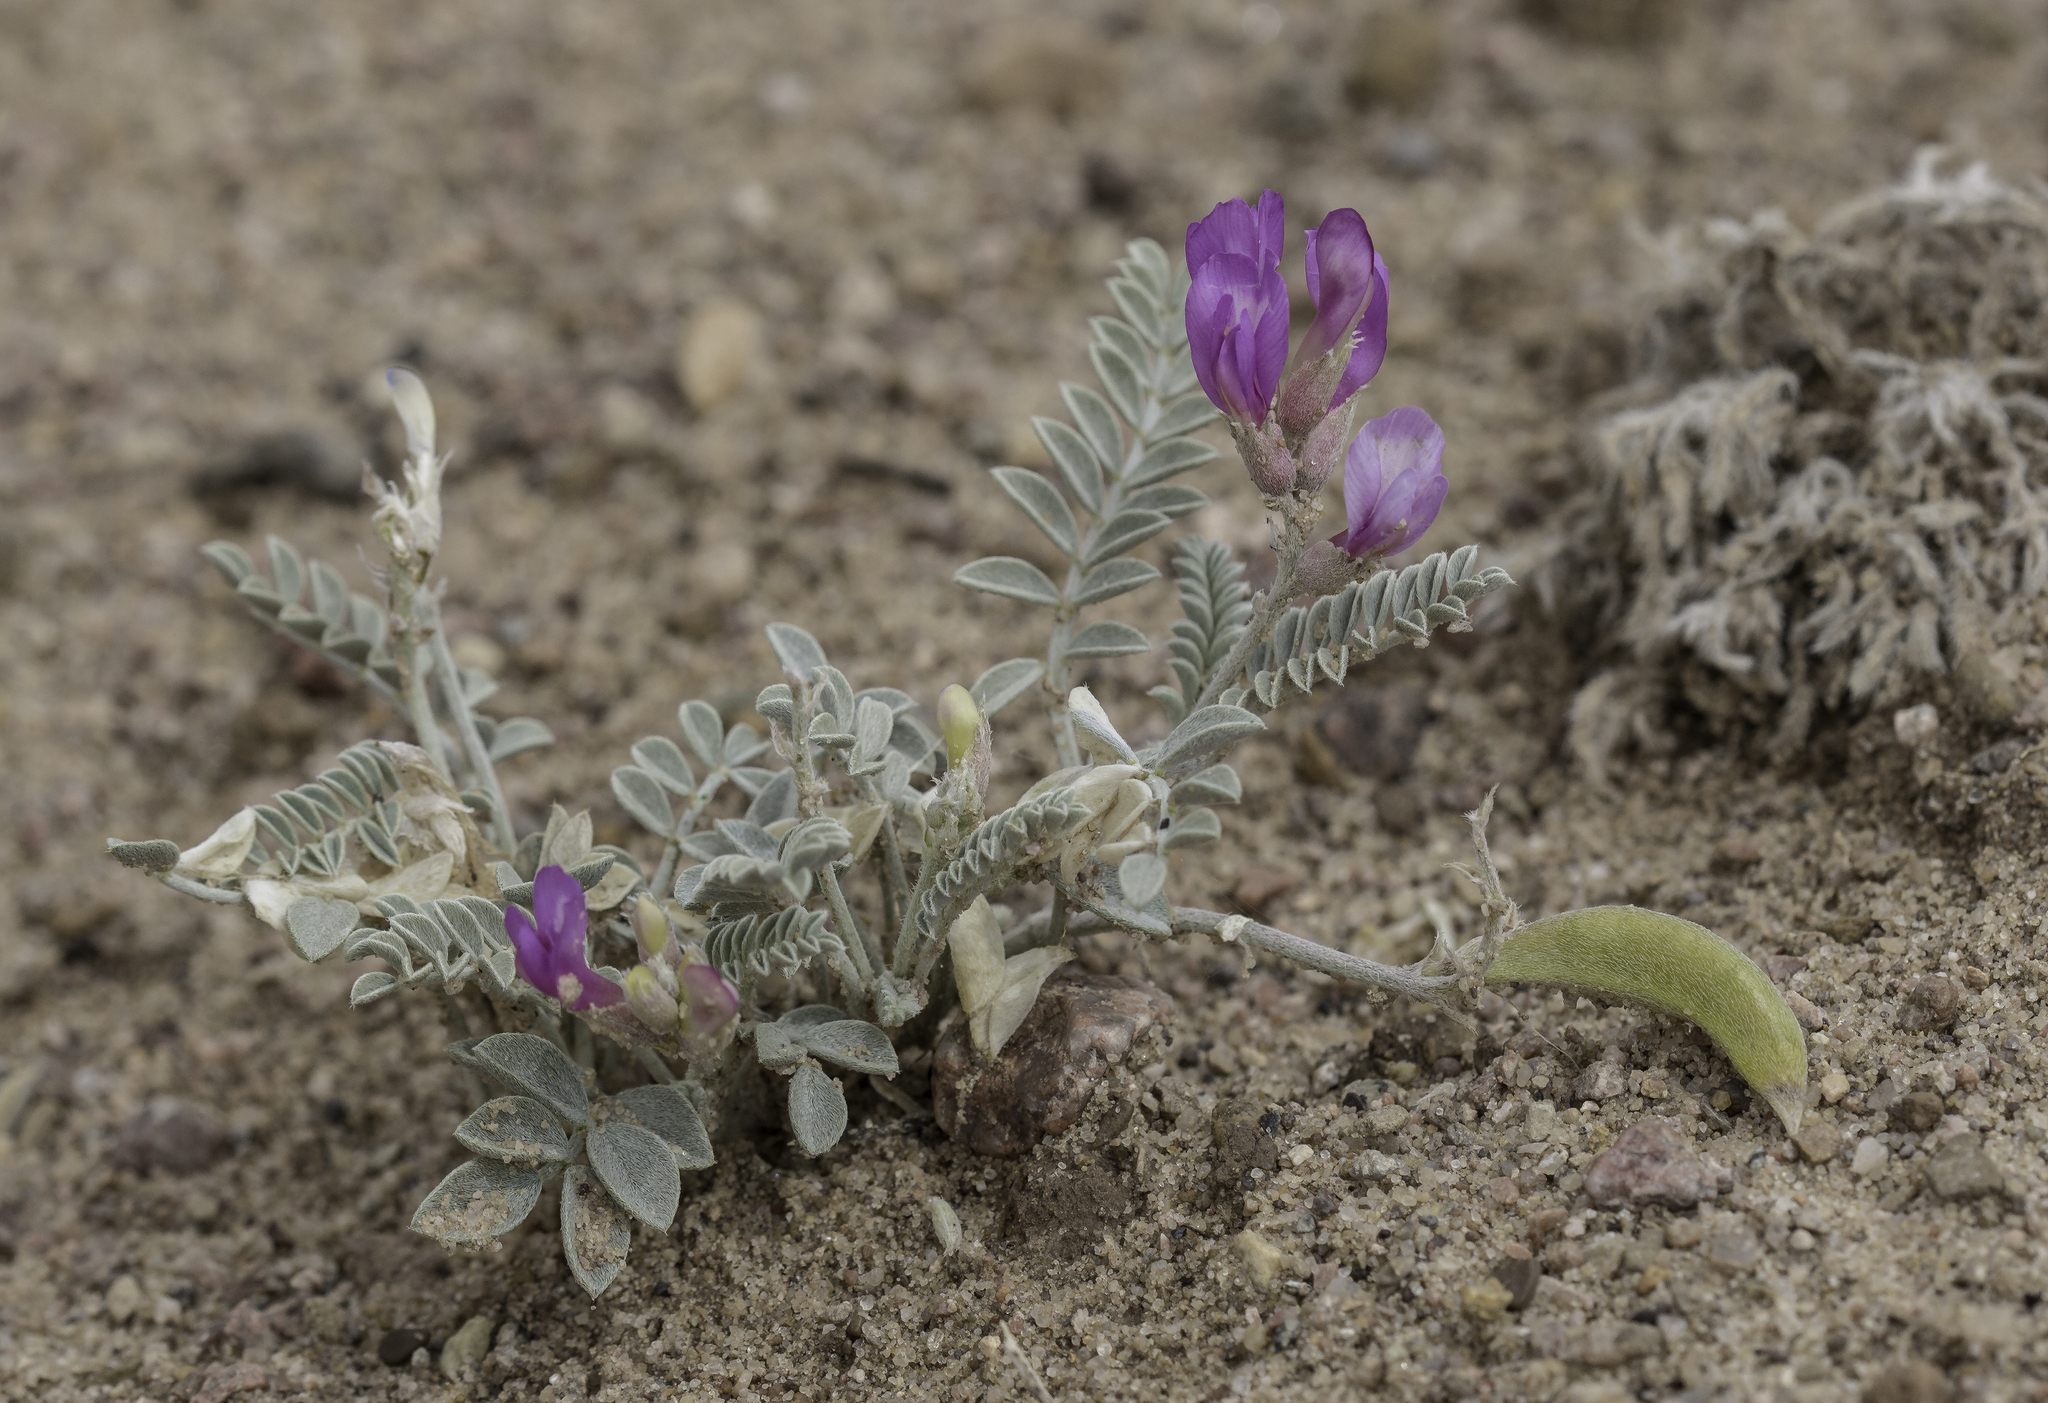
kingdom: Plantae
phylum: Tracheophyta
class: Magnoliopsida
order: Fabales
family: Fabaceae
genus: Astragalus
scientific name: Astragalus amphioxys
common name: Crescent milk-vetch
